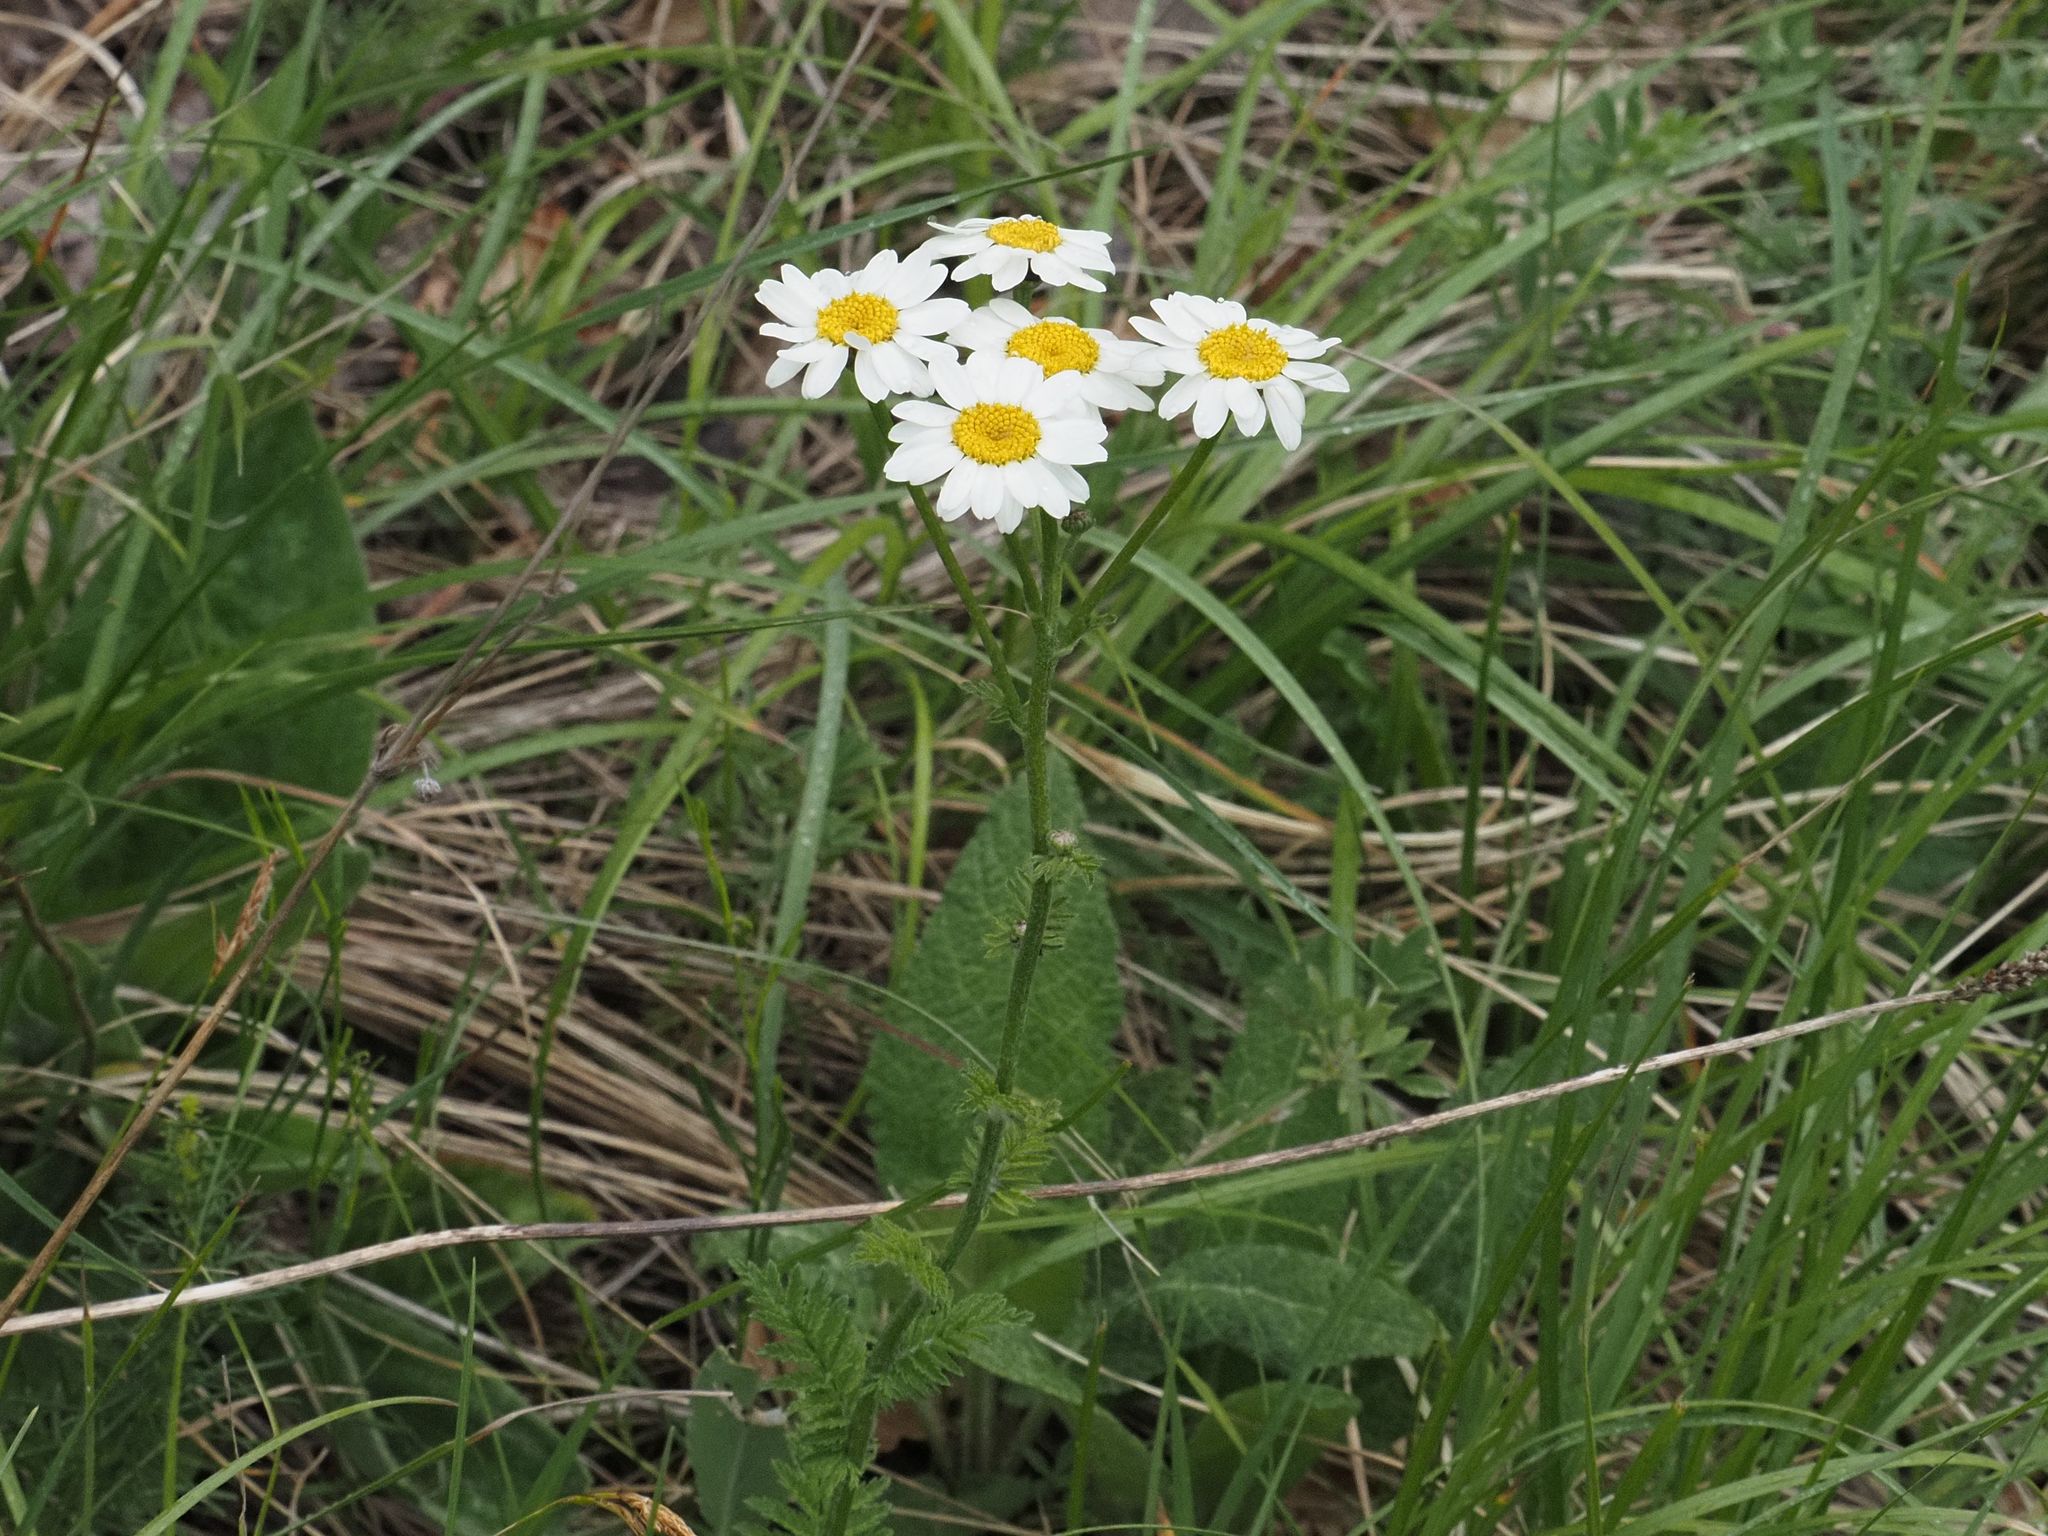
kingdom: Plantae
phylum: Tracheophyta
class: Magnoliopsida
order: Asterales
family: Asteraceae
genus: Tanacetum
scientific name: Tanacetum corymbosum
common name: Scentless feverfew
